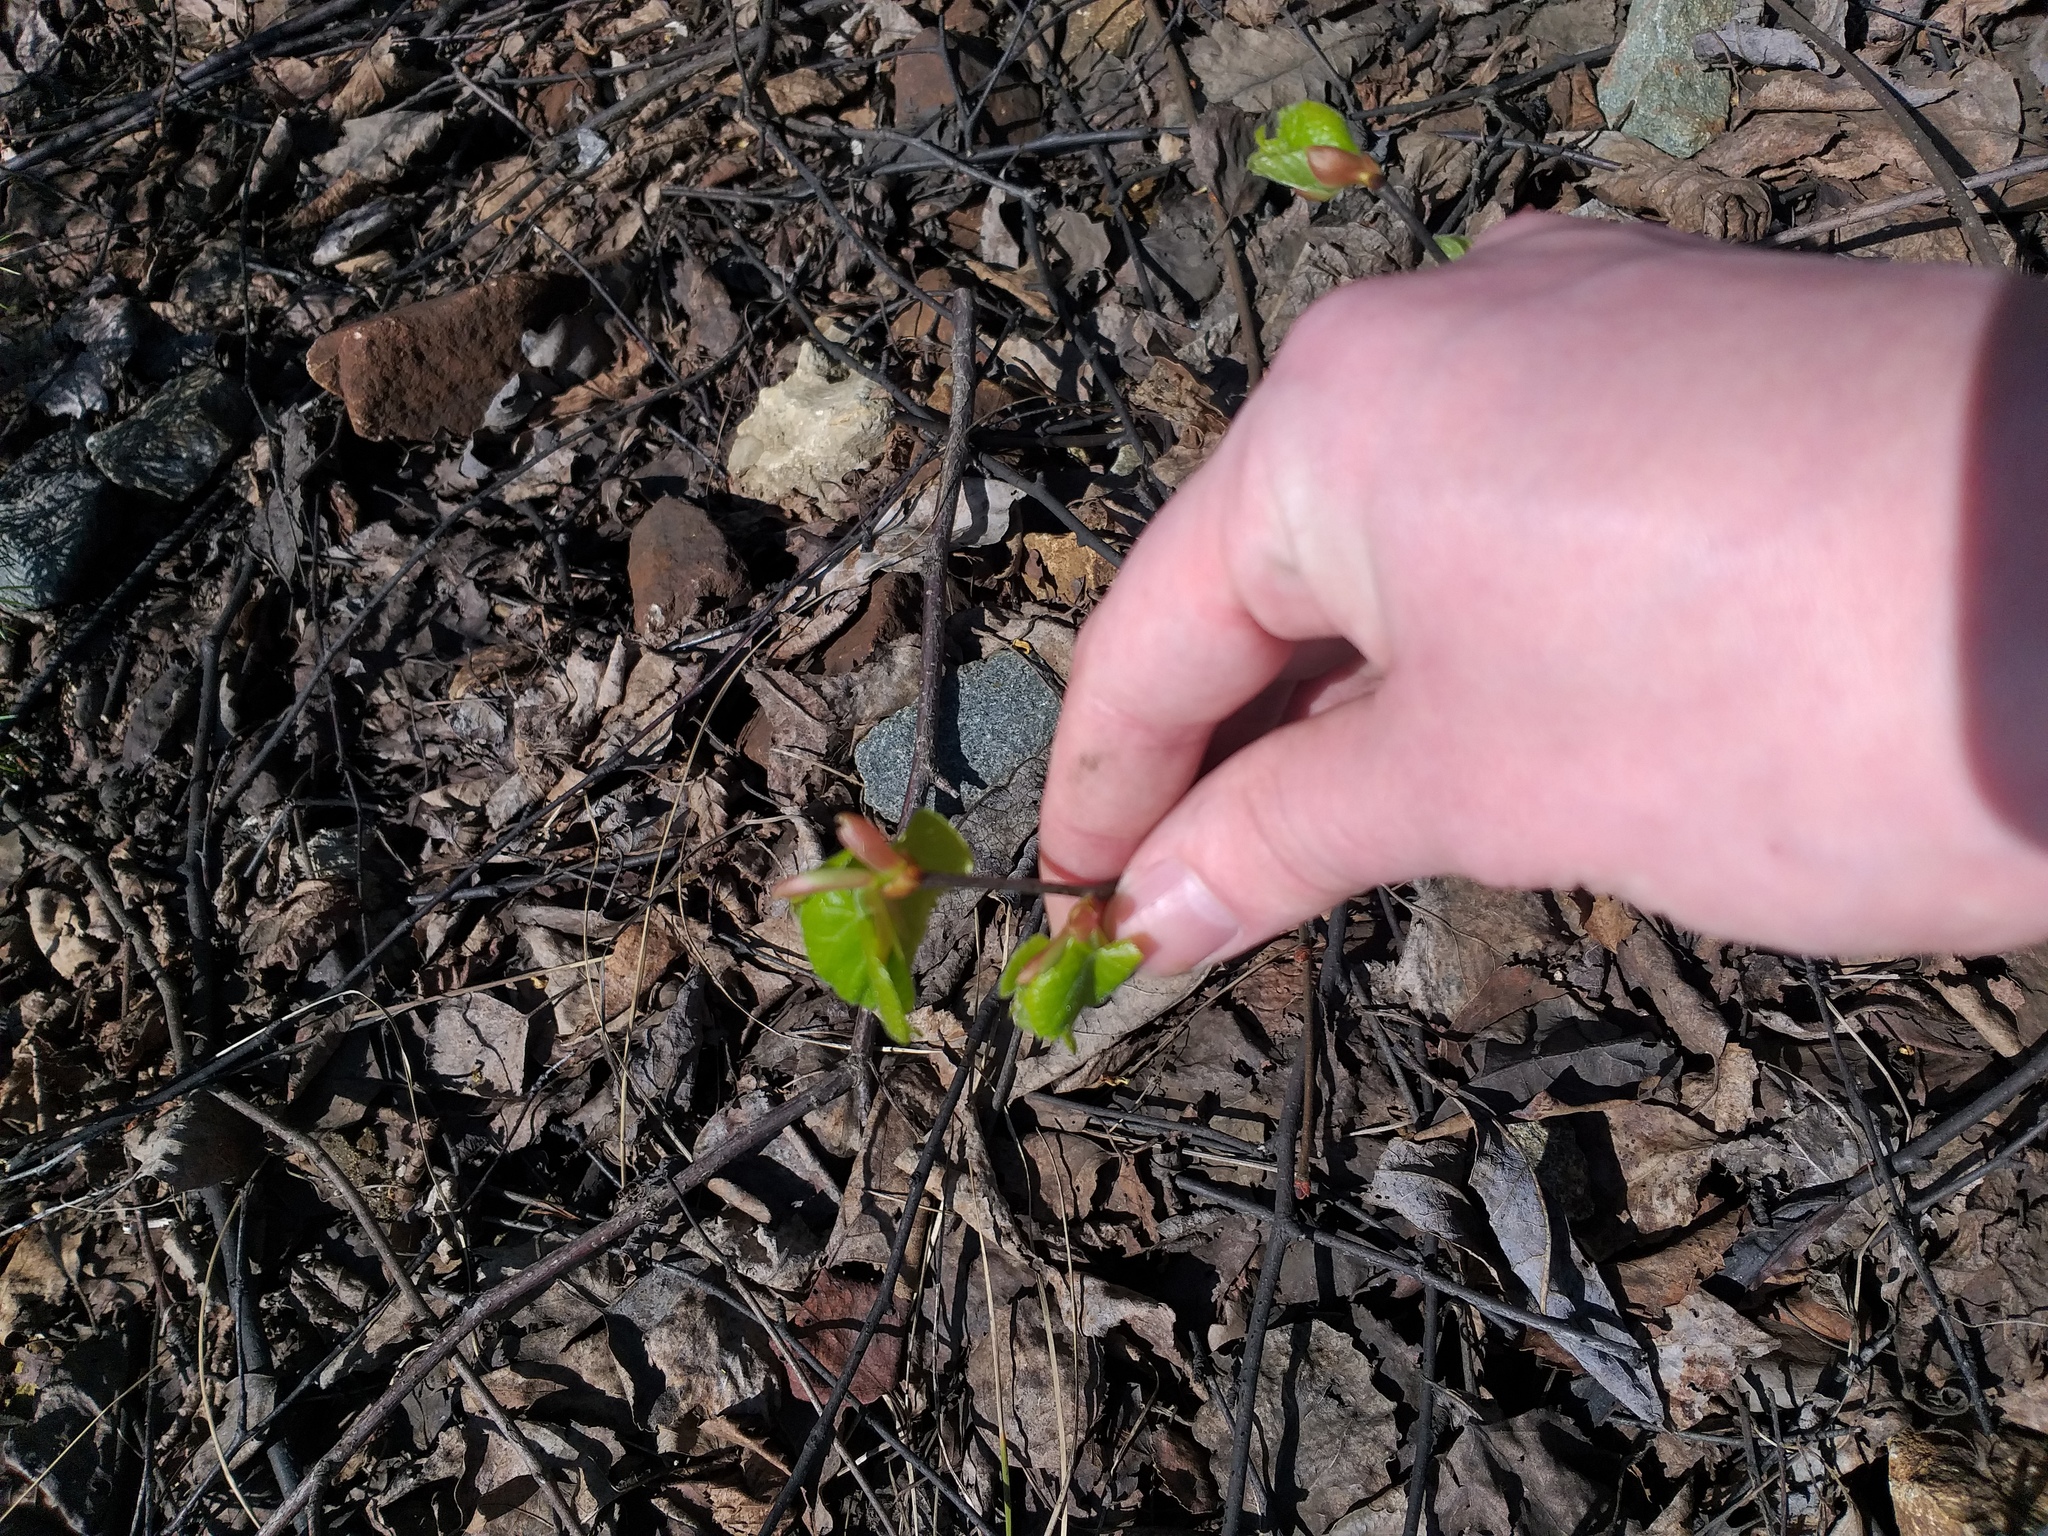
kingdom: Plantae
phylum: Tracheophyta
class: Magnoliopsida
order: Malvales
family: Malvaceae
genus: Tilia
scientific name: Tilia cordata
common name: Small-leaved lime
